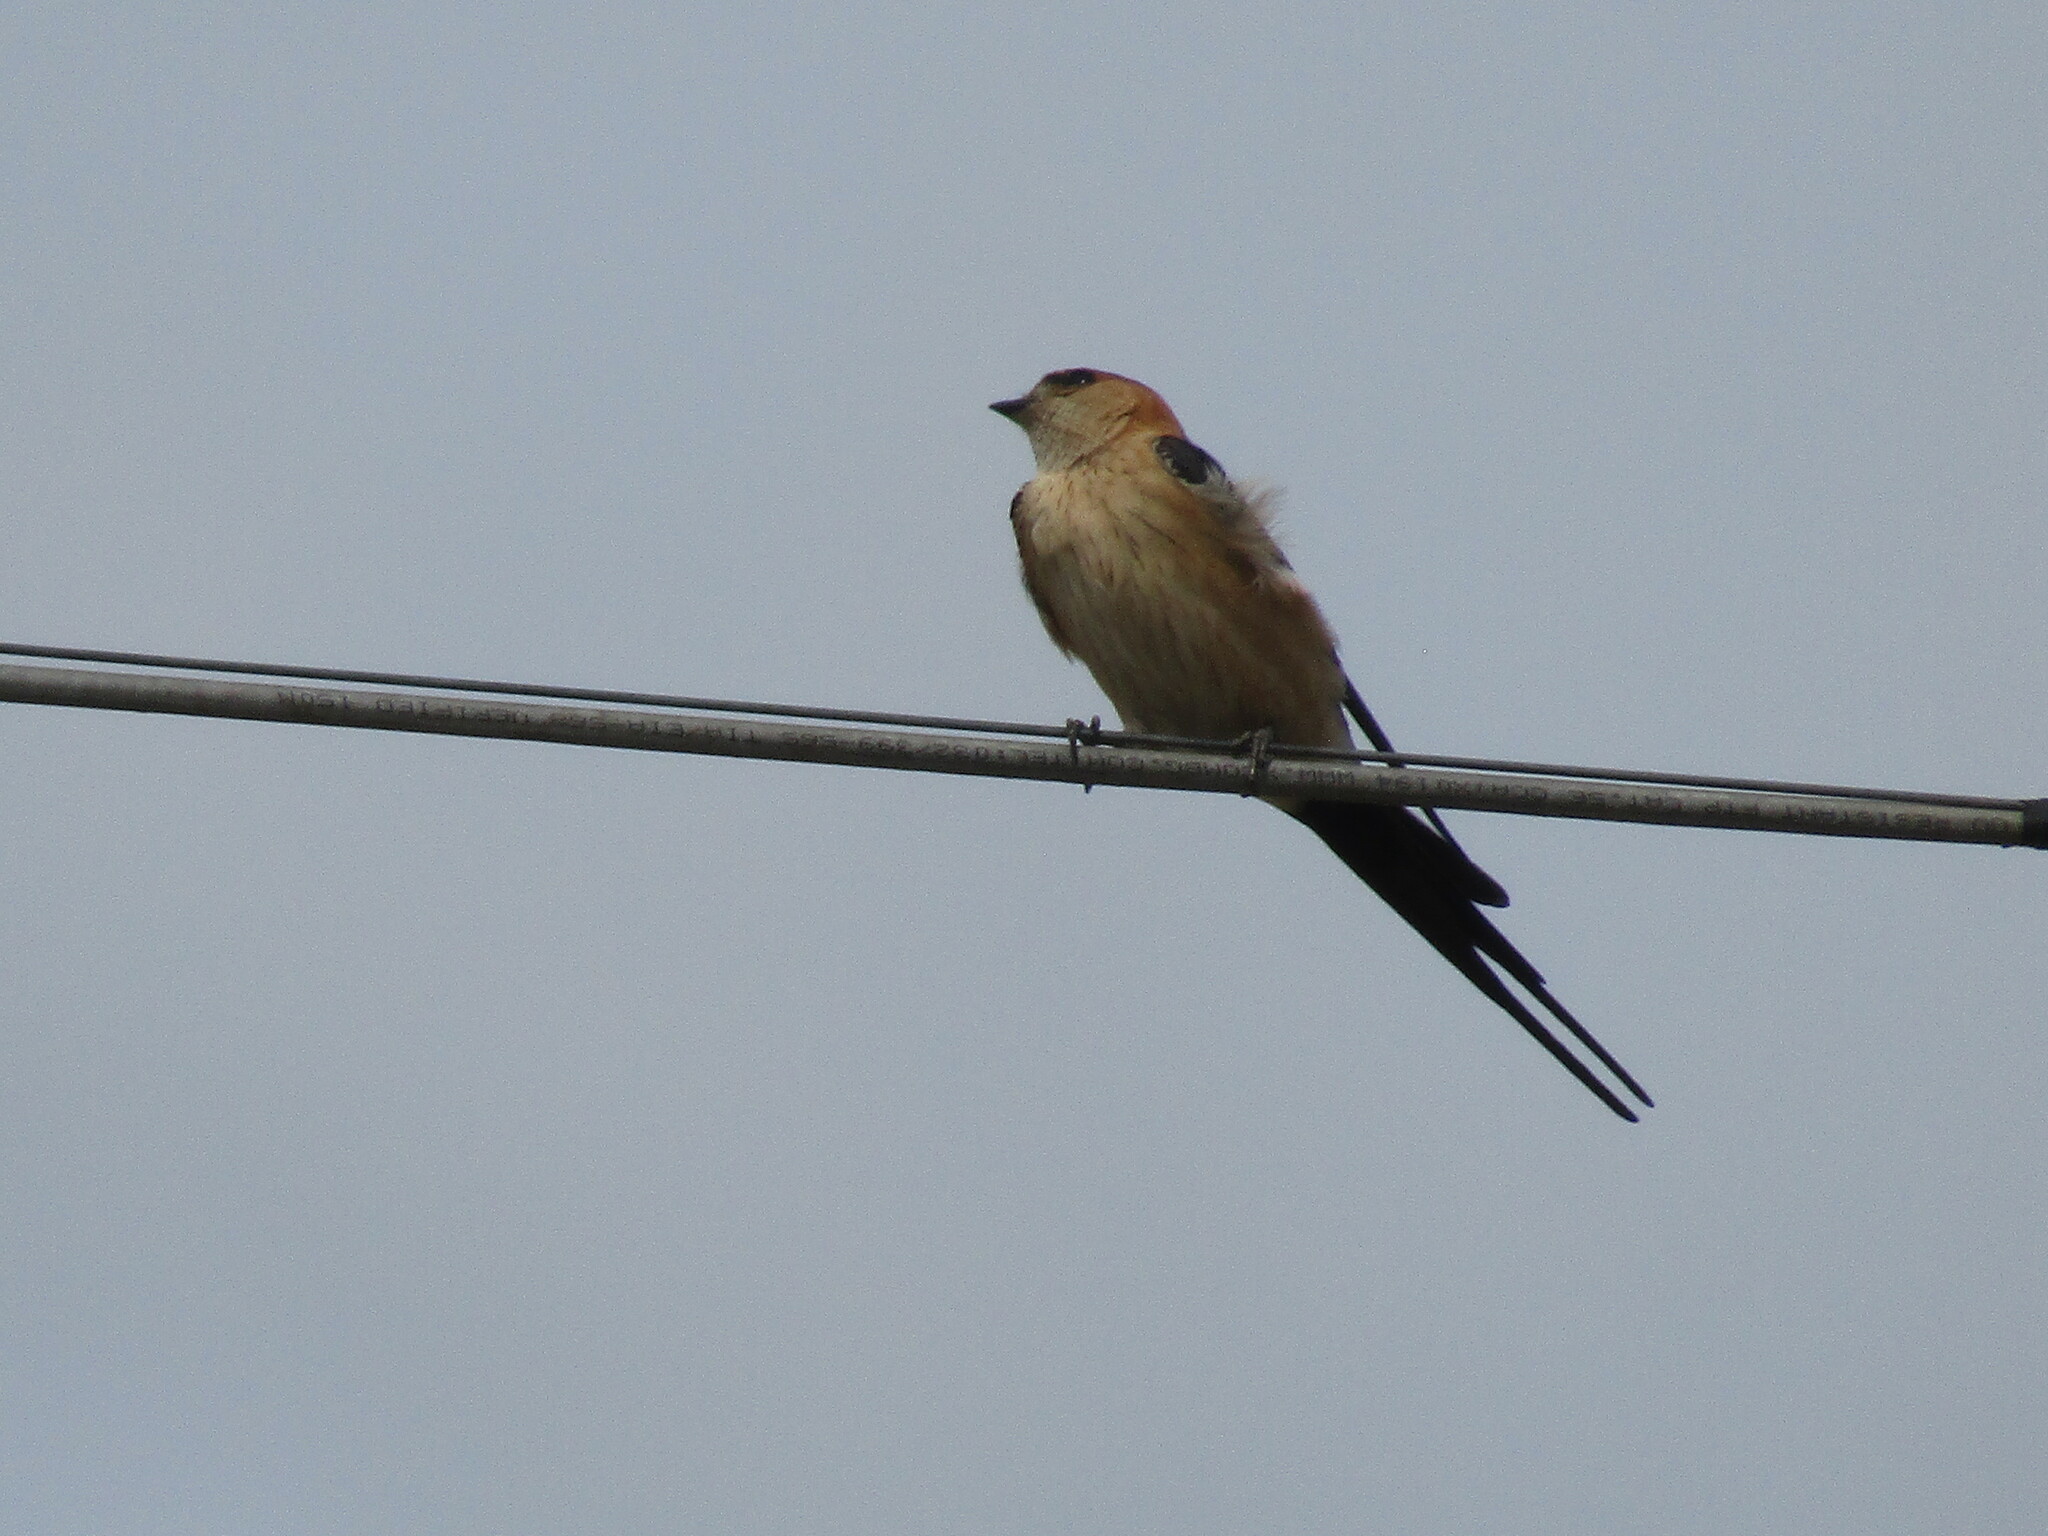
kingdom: Animalia
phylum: Chordata
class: Aves
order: Passeriformes
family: Hirundinidae
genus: Cecropis
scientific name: Cecropis daurica
